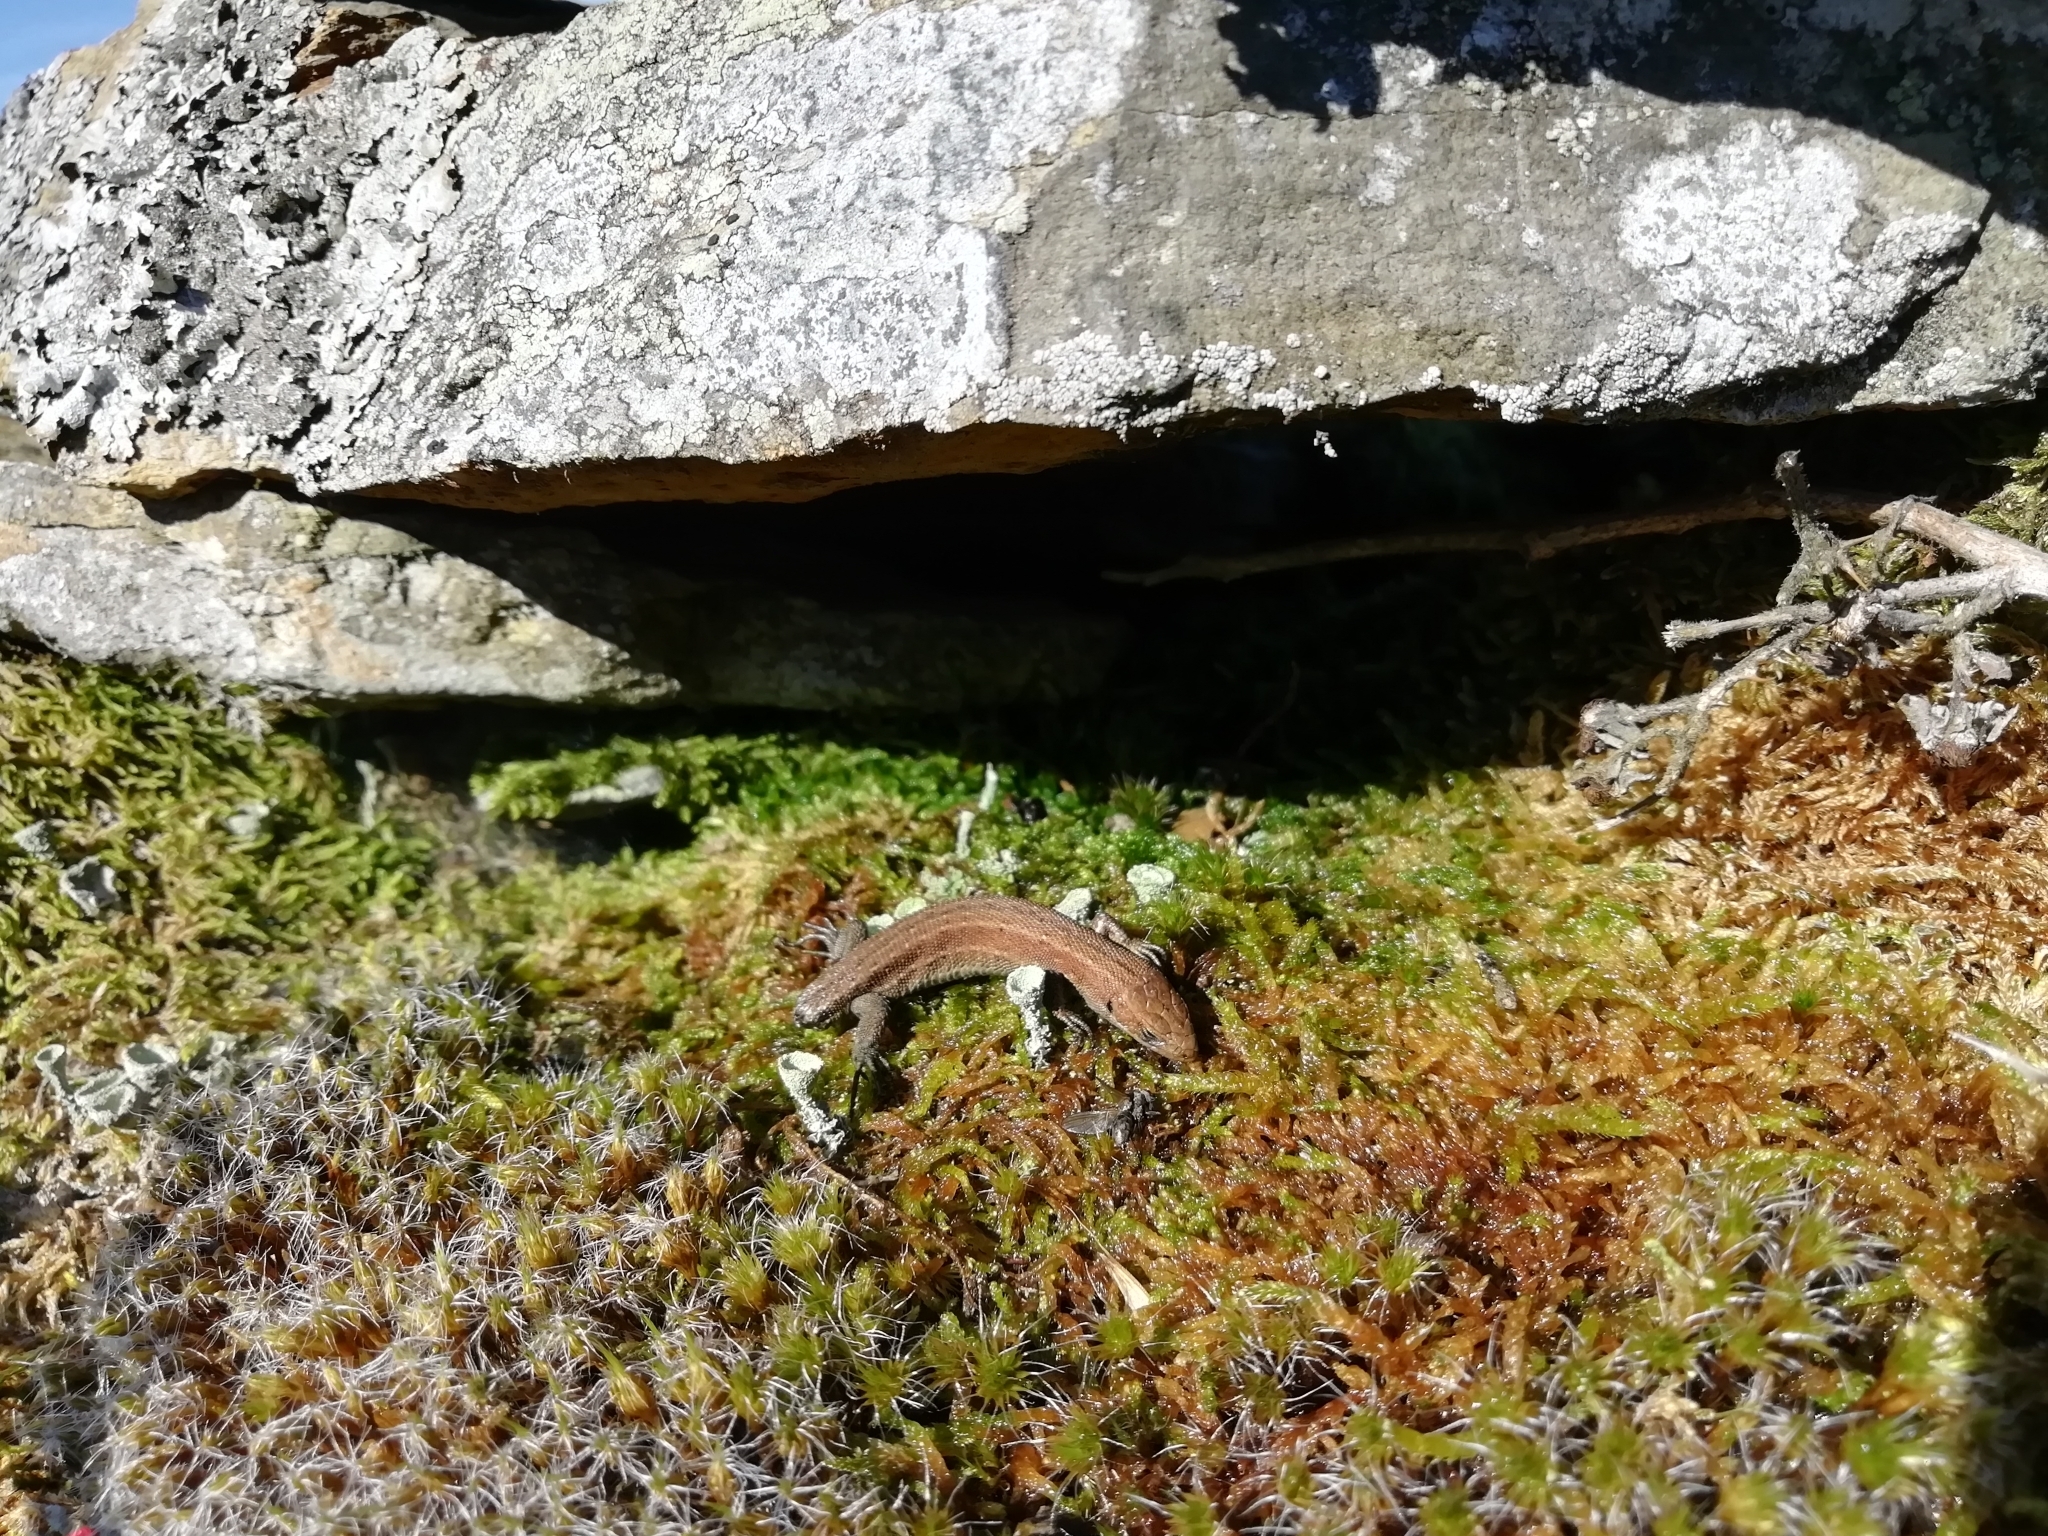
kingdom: Animalia
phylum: Chordata
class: Squamata
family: Lacertidae
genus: Zootoca
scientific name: Zootoca vivipara
